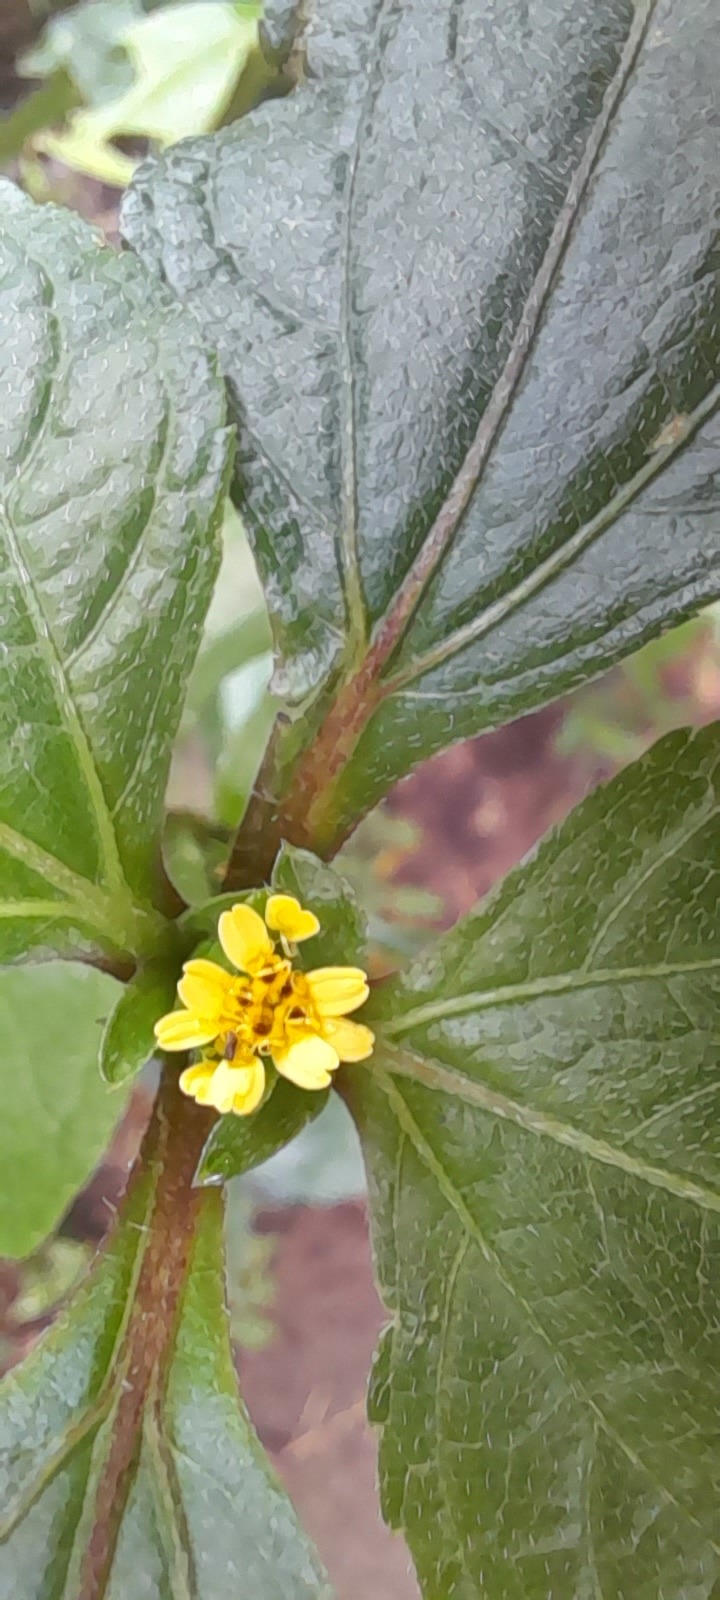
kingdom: Plantae
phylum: Tracheophyta
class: Magnoliopsida
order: Asterales
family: Asteraceae
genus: Synedrella
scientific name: Synedrella nodiflora
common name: Nodeweed
